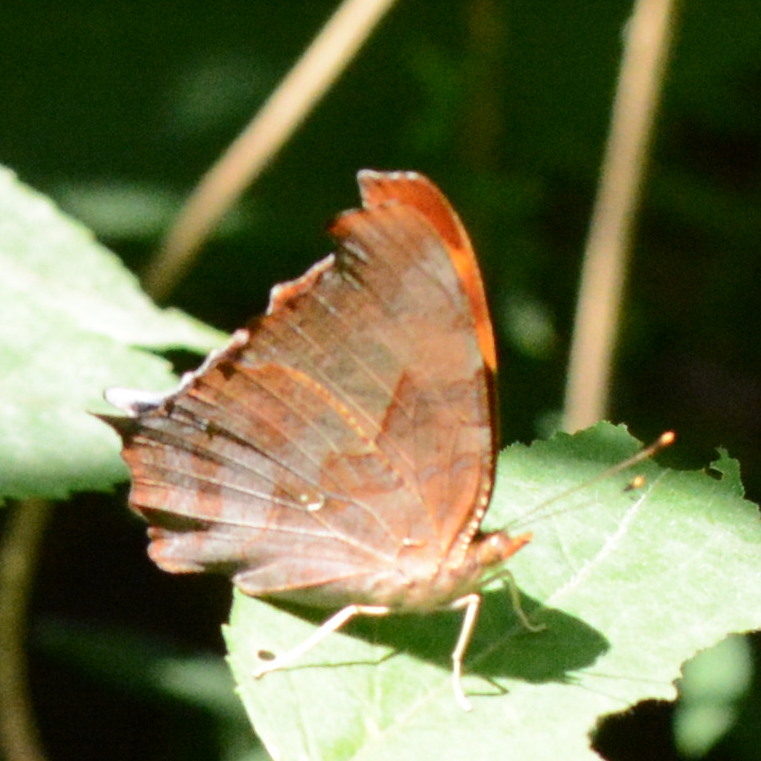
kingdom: Animalia
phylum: Arthropoda
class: Insecta
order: Lepidoptera
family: Nymphalidae
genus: Polygonia
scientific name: Polygonia interrogationis
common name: Question mark
